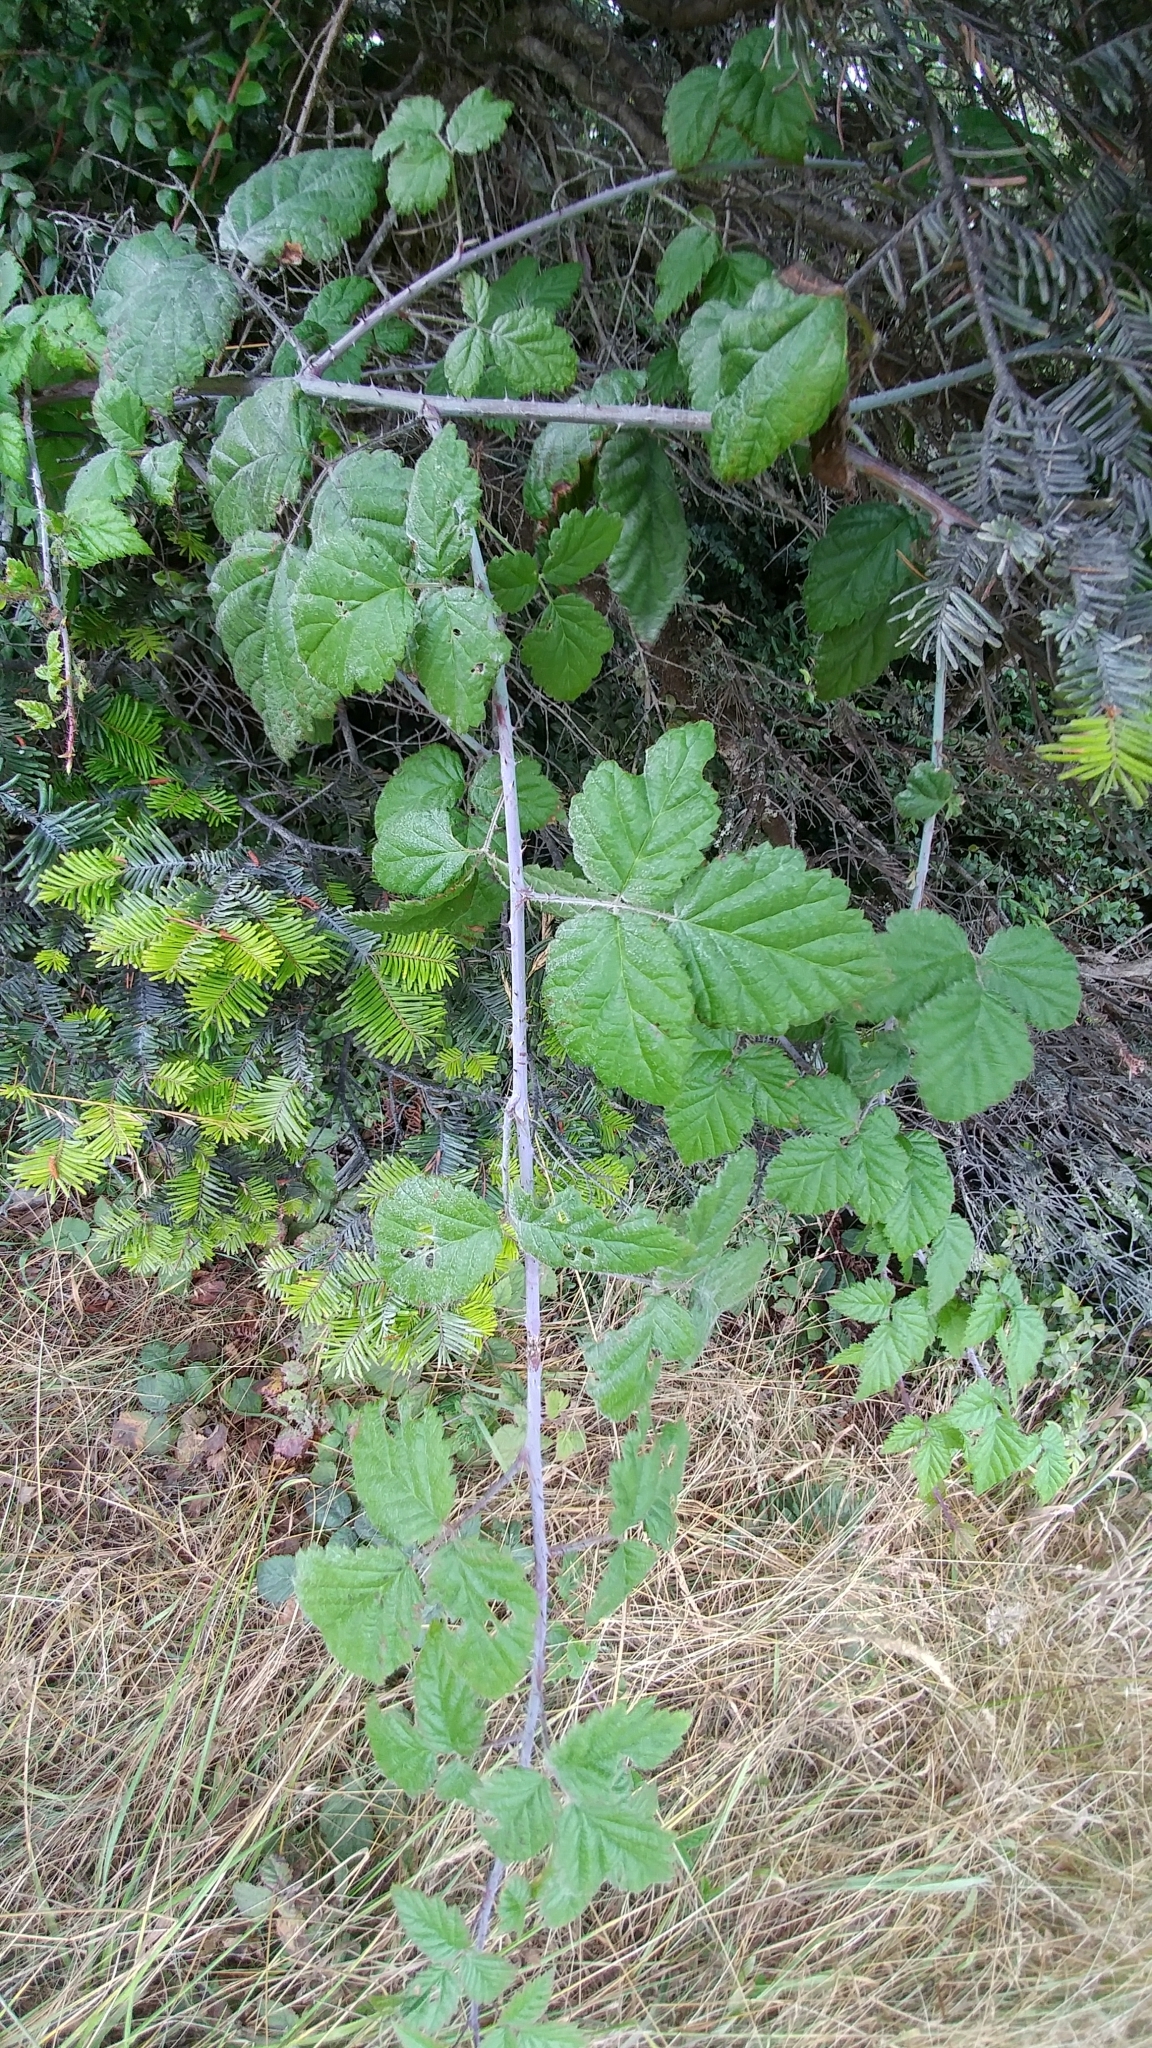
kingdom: Plantae
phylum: Tracheophyta
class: Magnoliopsida
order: Rosales
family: Rosaceae
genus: Rubus
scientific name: Rubus ursinus
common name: Pacific blackberry
